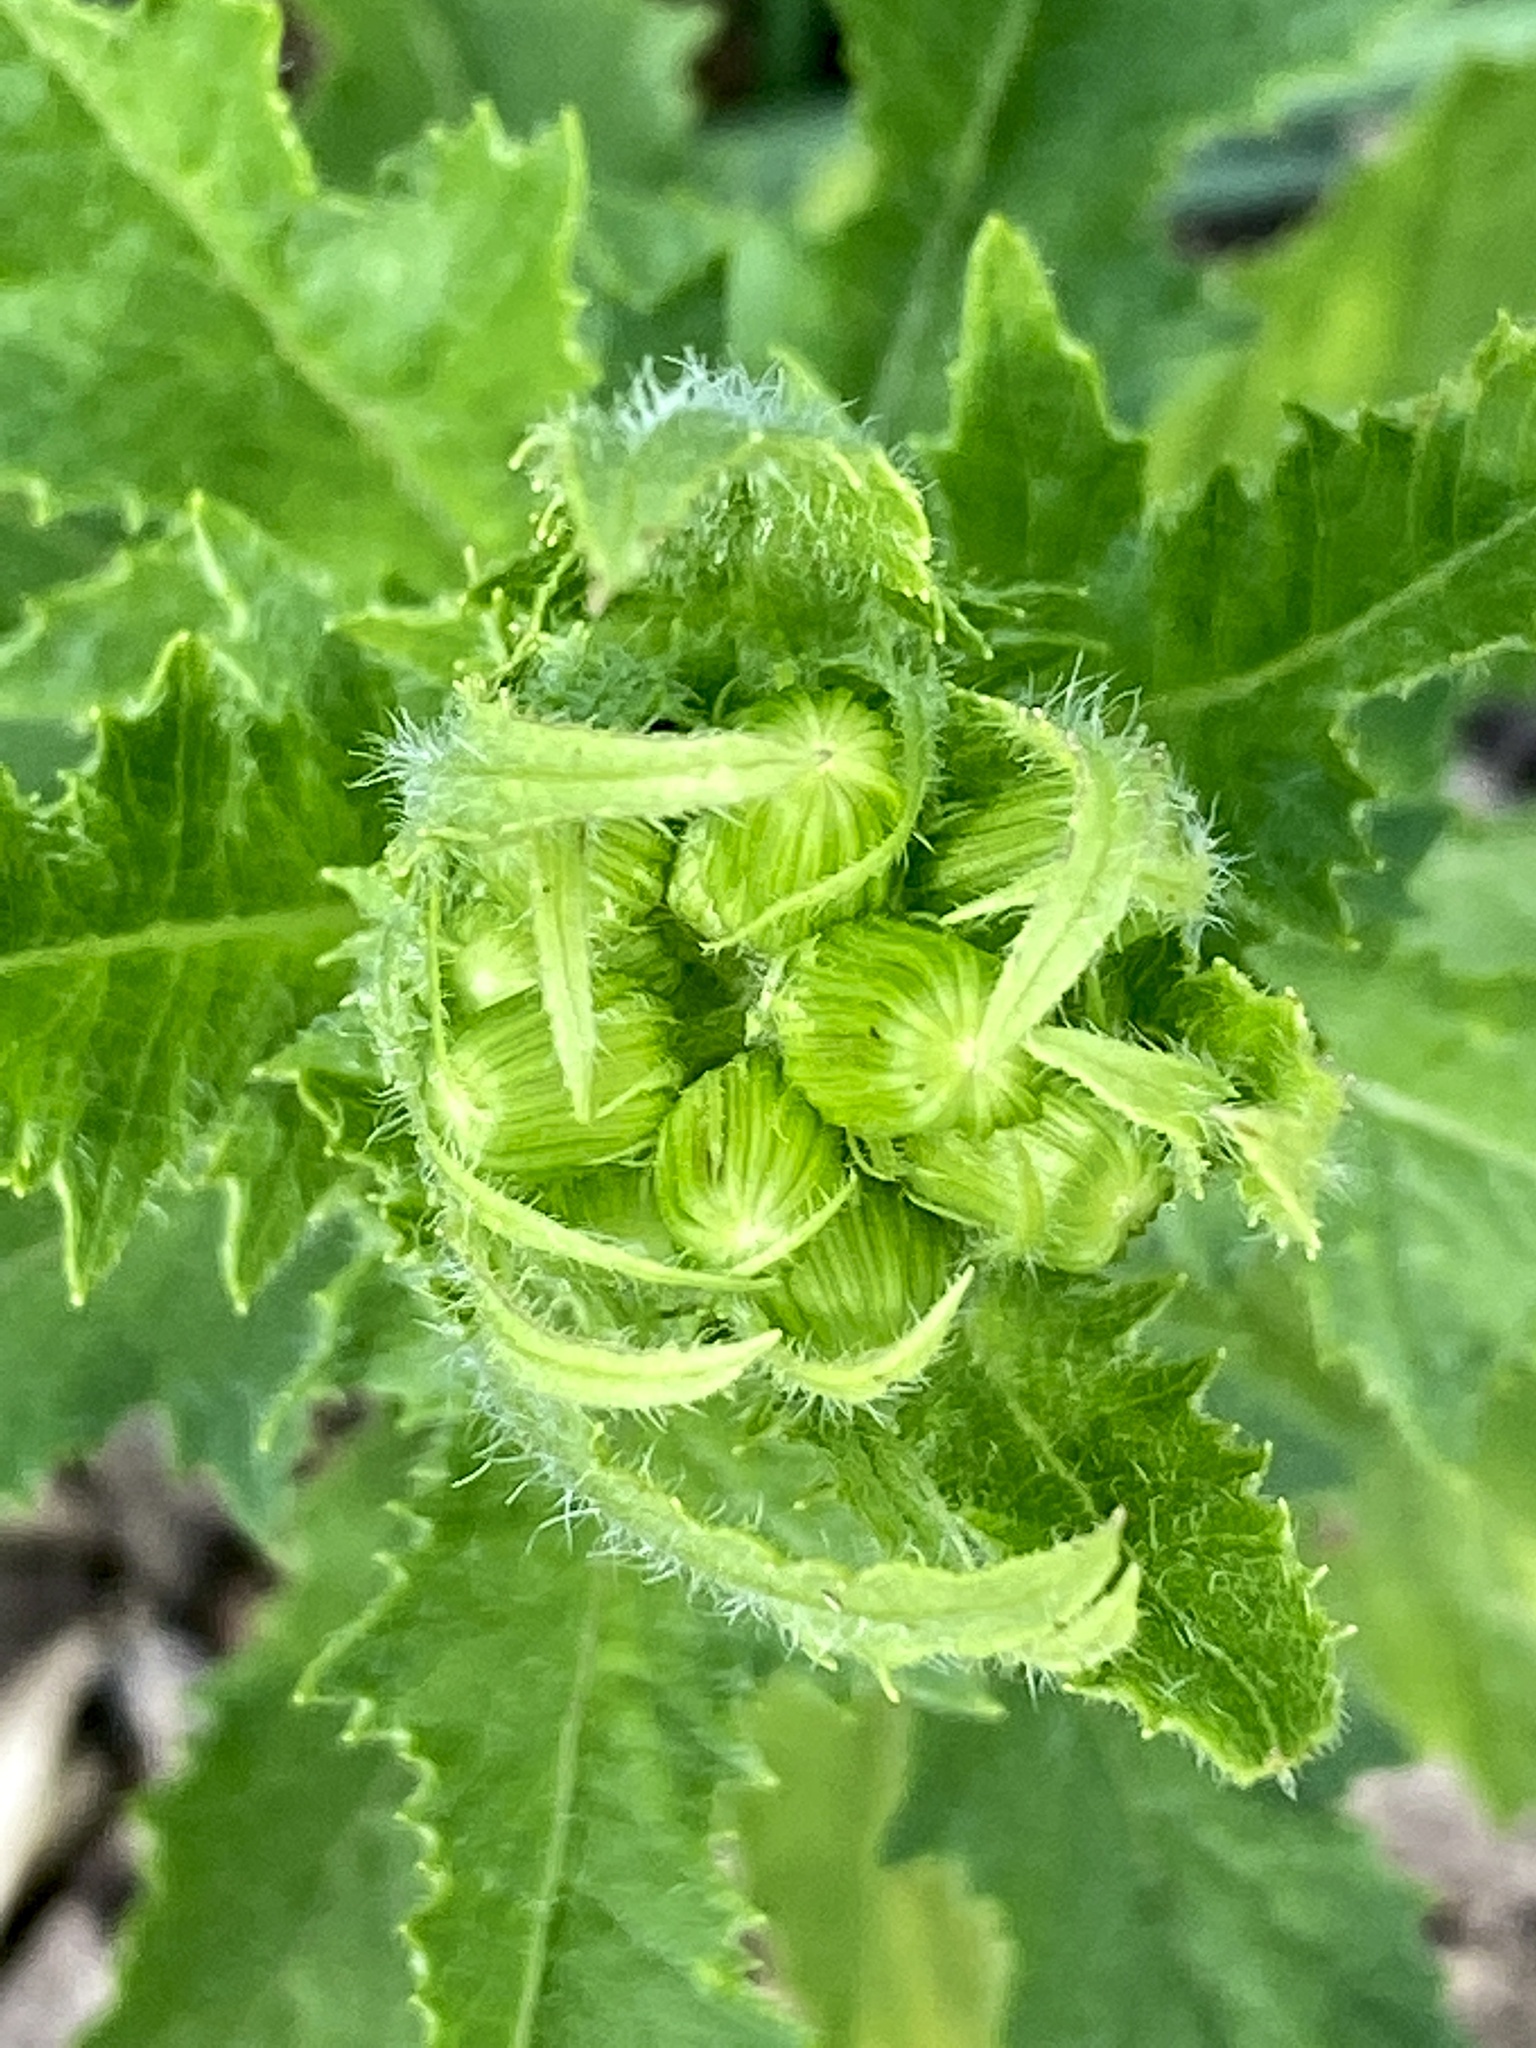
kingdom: Plantae
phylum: Tracheophyta
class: Magnoliopsida
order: Asterales
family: Asteraceae
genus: Erechtites
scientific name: Erechtites hieraciifolius
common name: American burnweed
